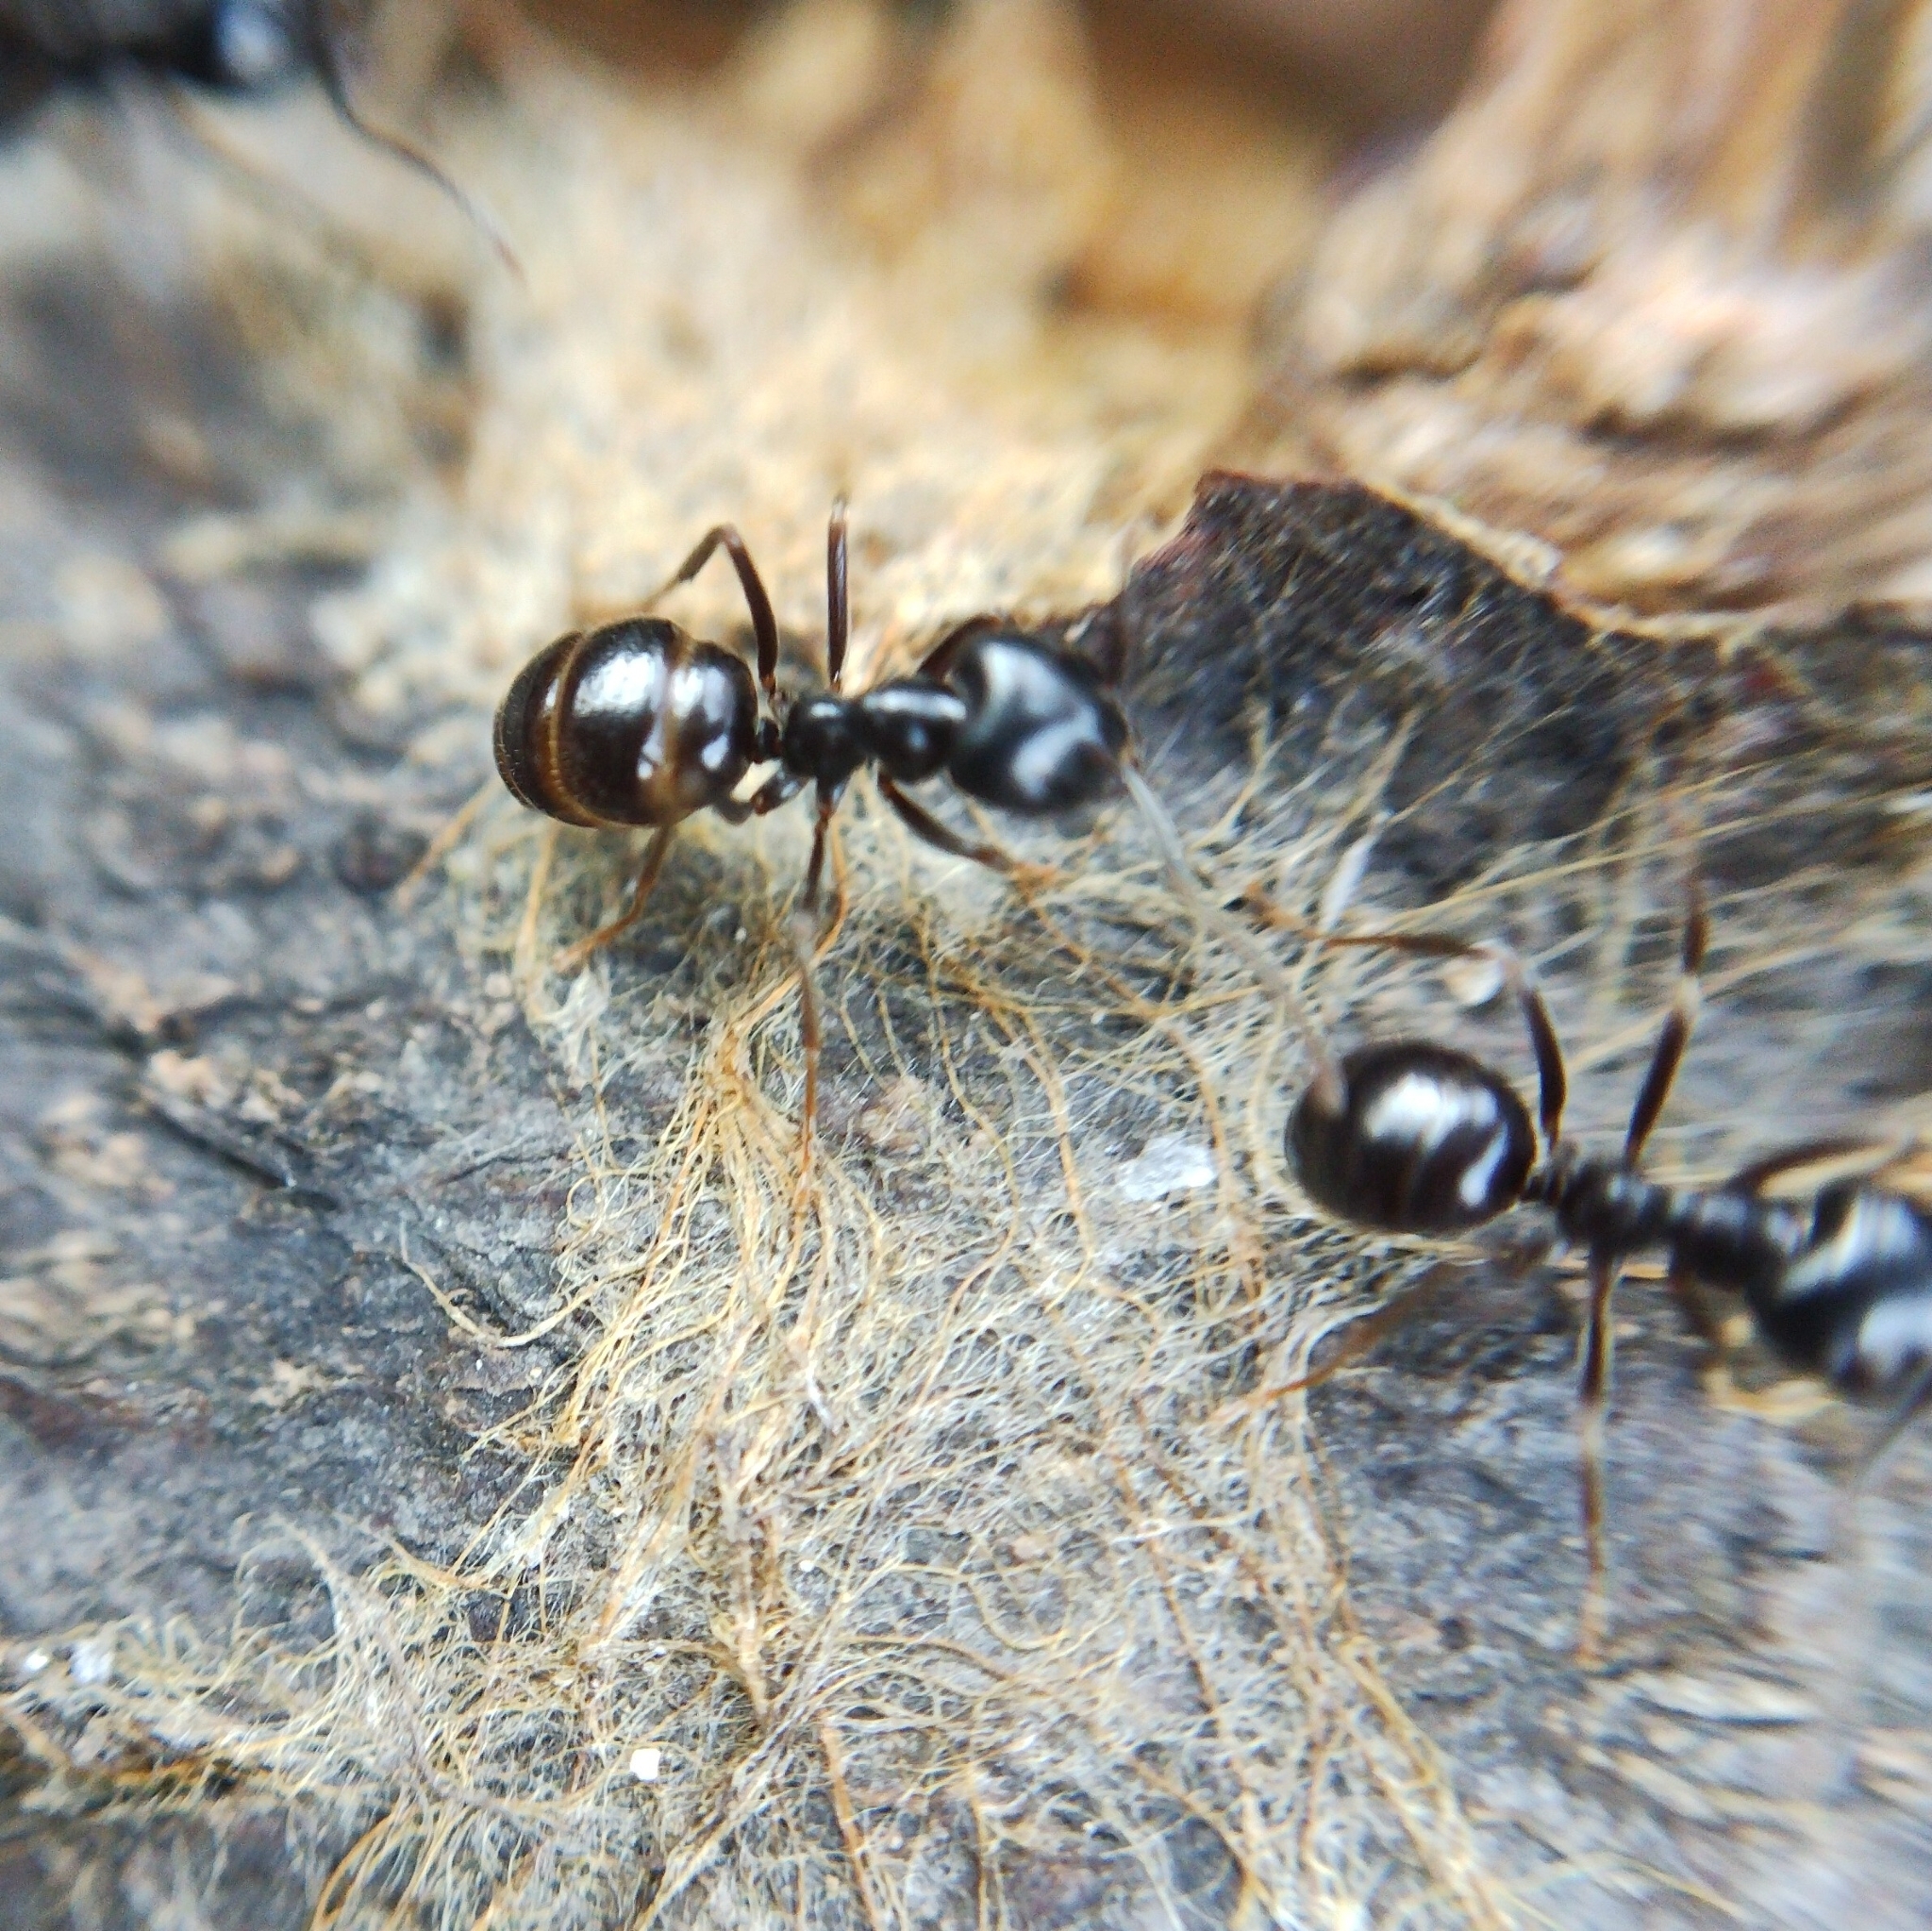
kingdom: Animalia
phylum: Arthropoda
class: Insecta
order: Hymenoptera
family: Formicidae
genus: Lasius
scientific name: Lasius fuliginosus
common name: Jet ant
